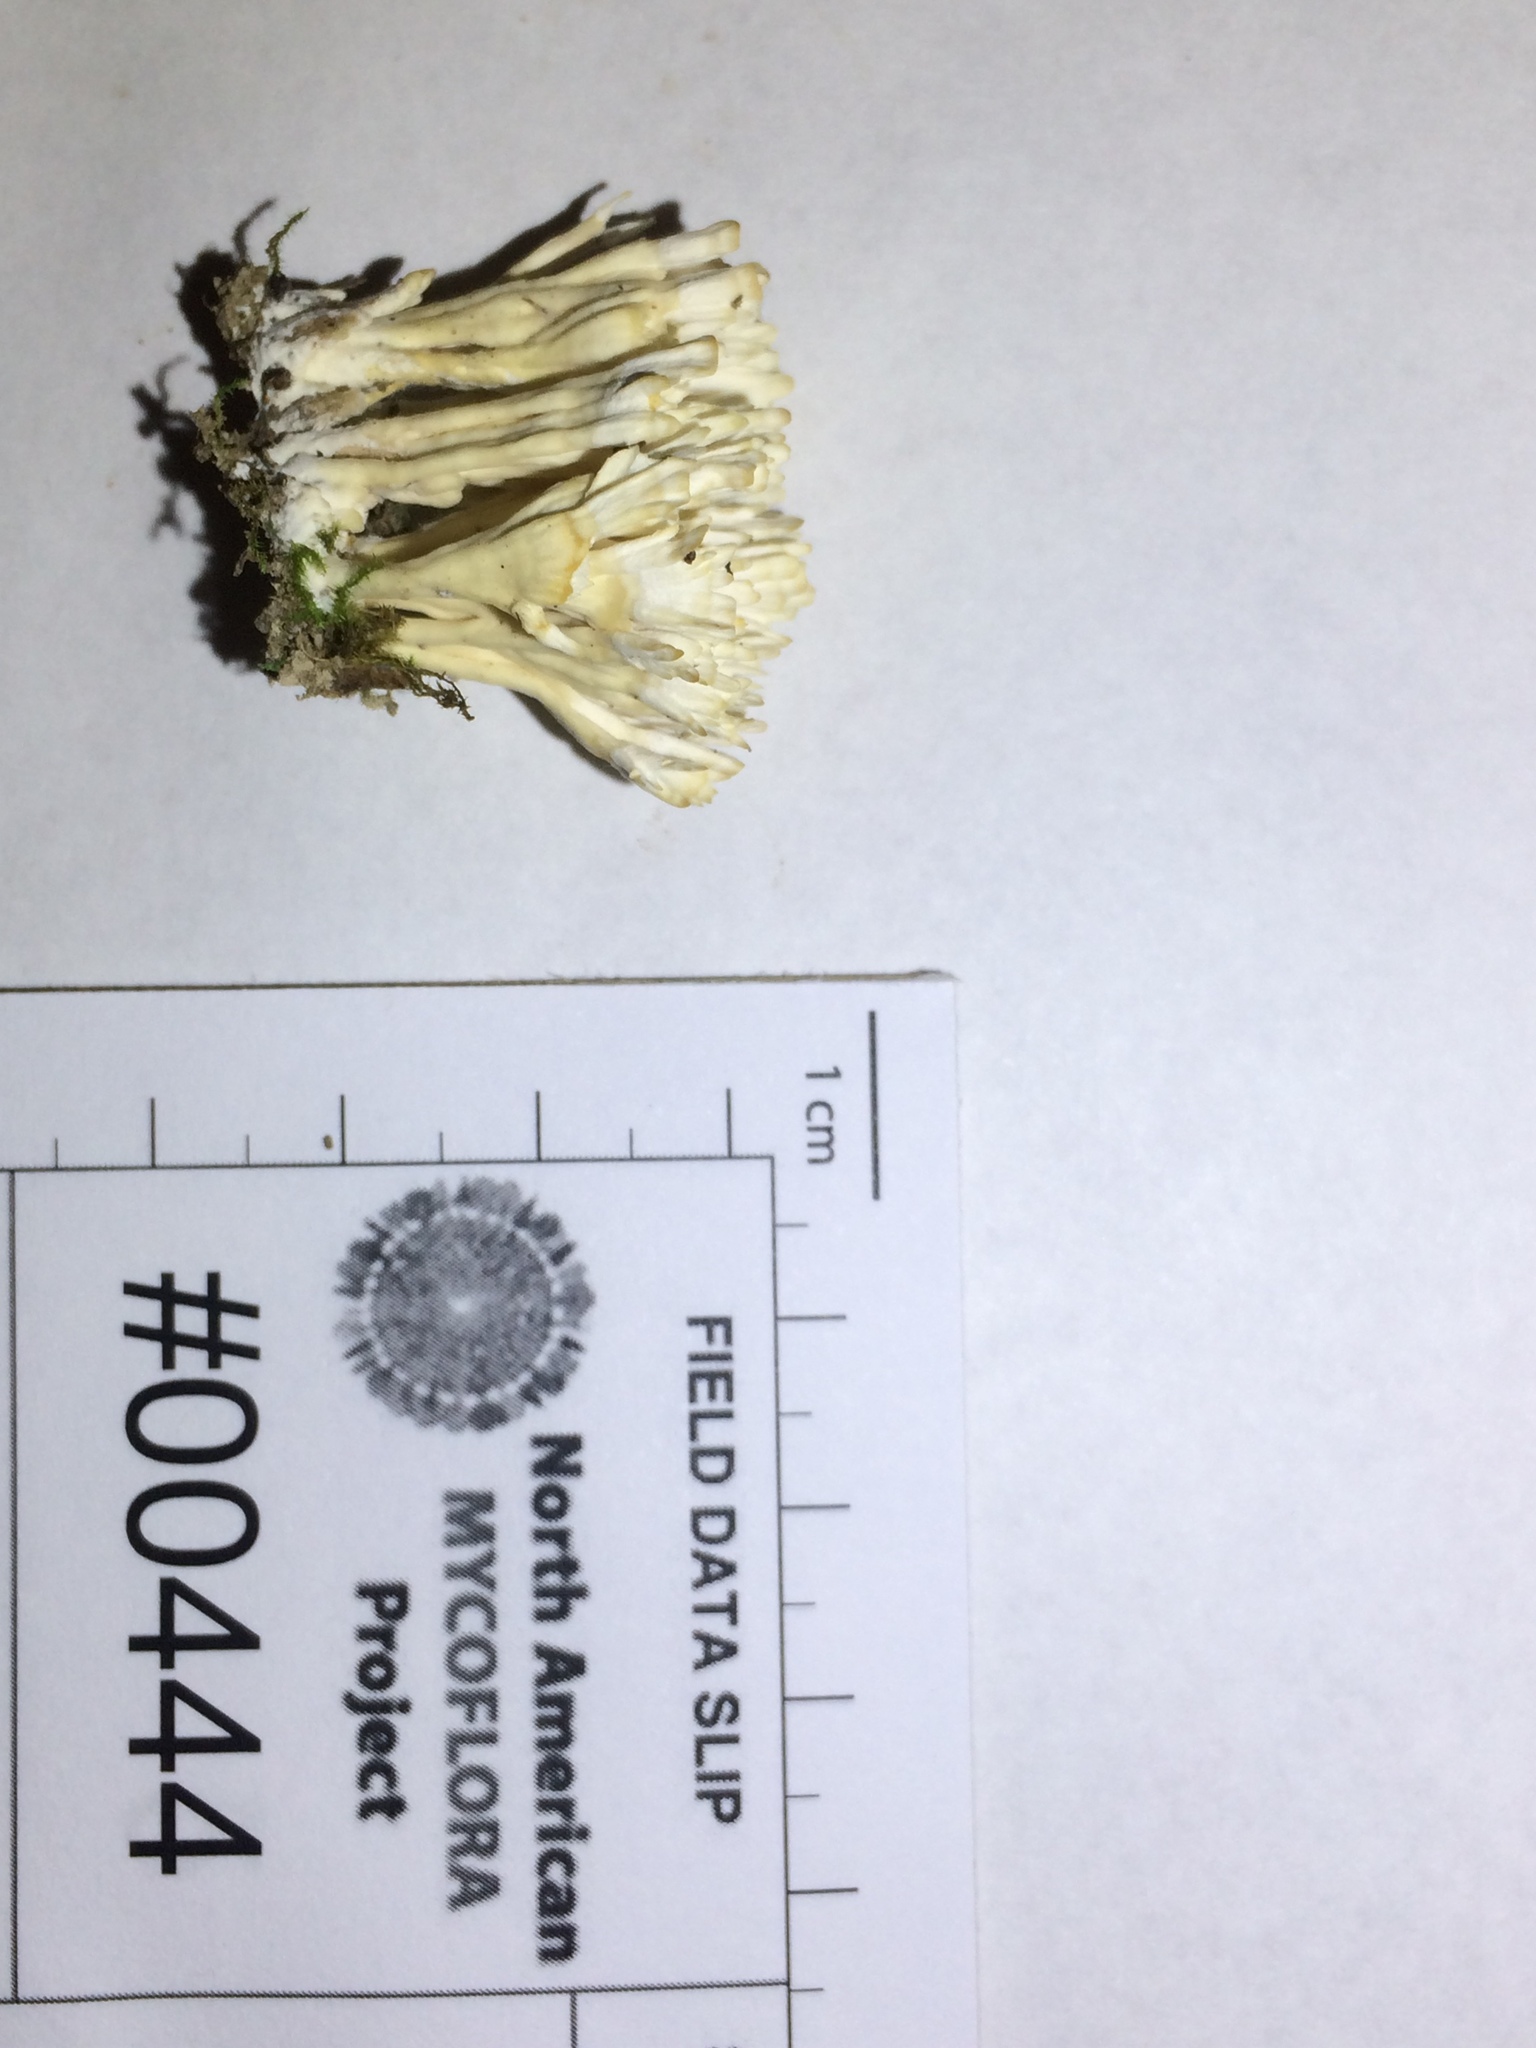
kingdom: Fungi
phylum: Basidiomycota
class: Agaricomycetes
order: Sebacinales
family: Sebacinaceae
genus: Sebacina
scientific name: Sebacina schweinitzii
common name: Jellied false coral fungus
